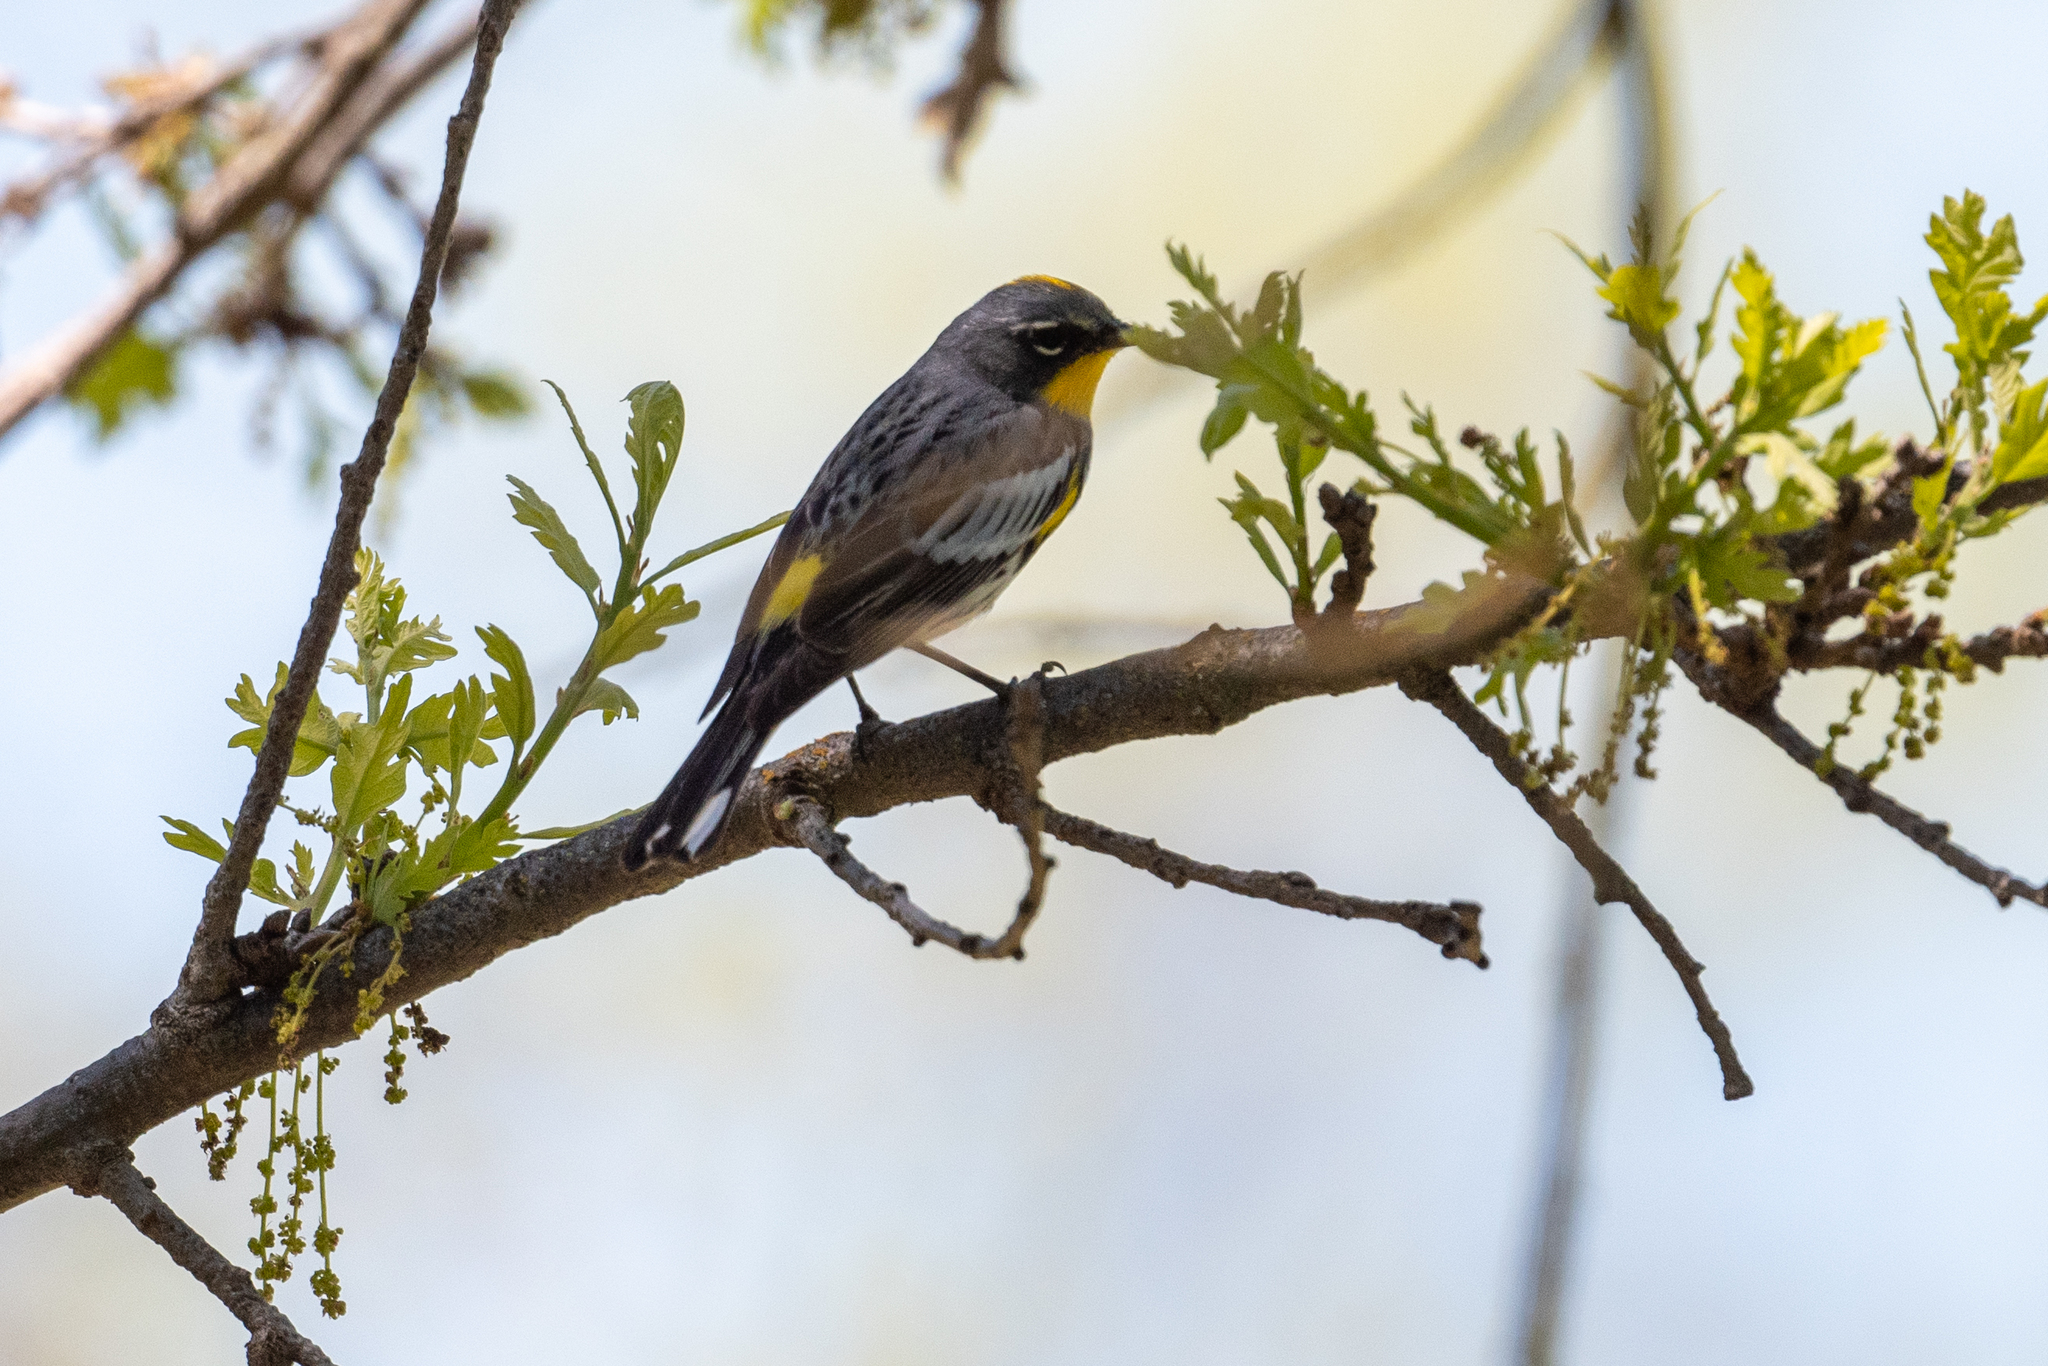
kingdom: Animalia
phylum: Chordata
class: Aves
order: Passeriformes
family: Parulidae
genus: Setophaga
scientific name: Setophaga coronata
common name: Myrtle warbler
